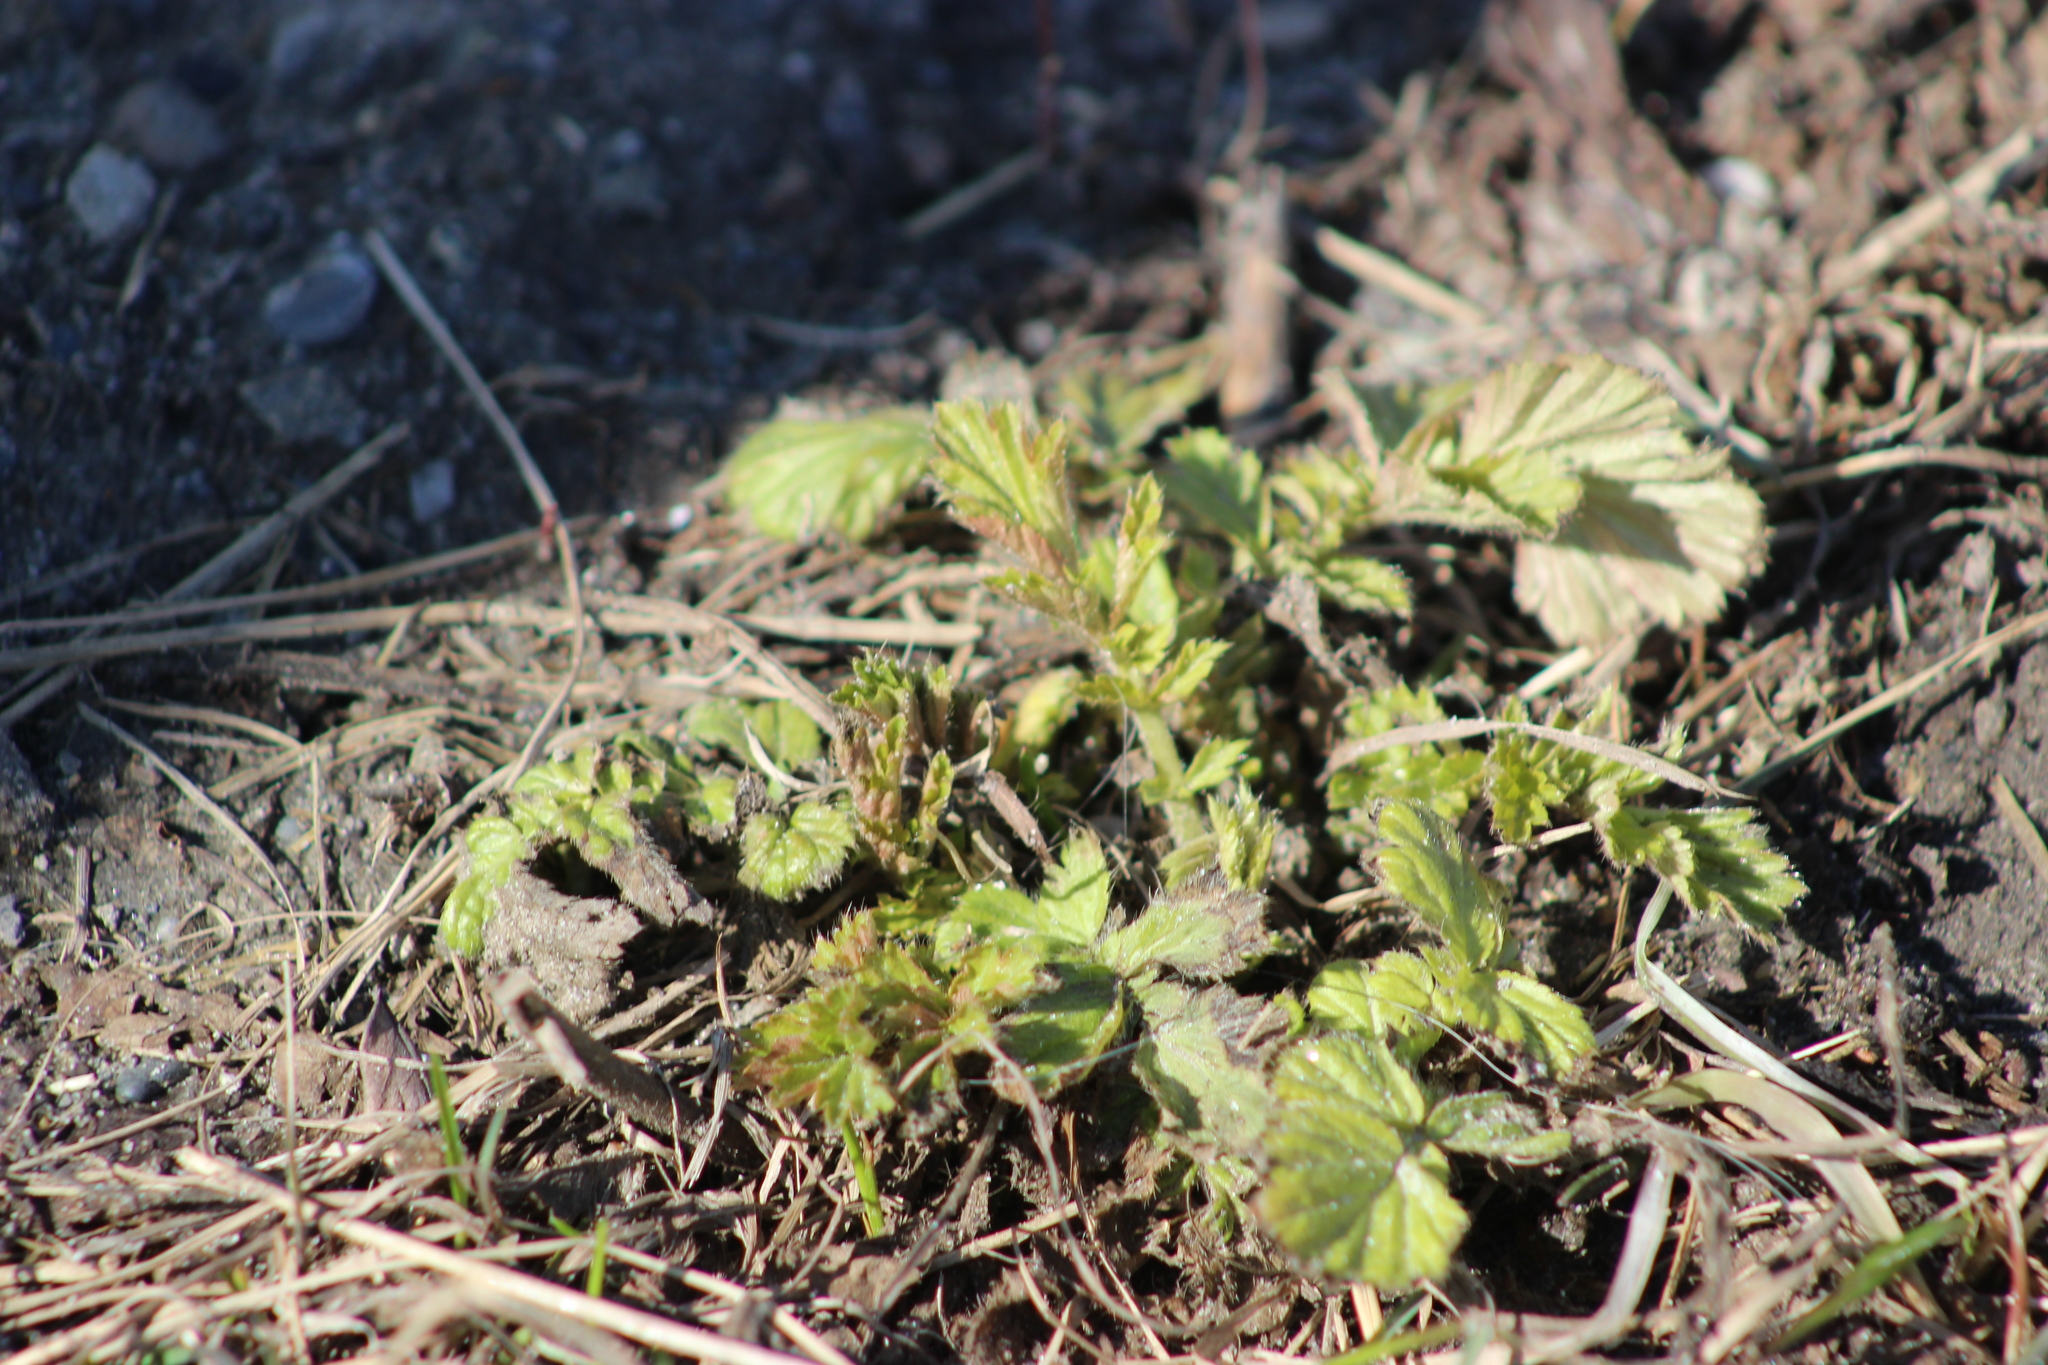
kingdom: Plantae
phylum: Tracheophyta
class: Magnoliopsida
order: Rosales
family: Rosaceae
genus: Geum
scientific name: Geum aleppicum
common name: Yellow avens
